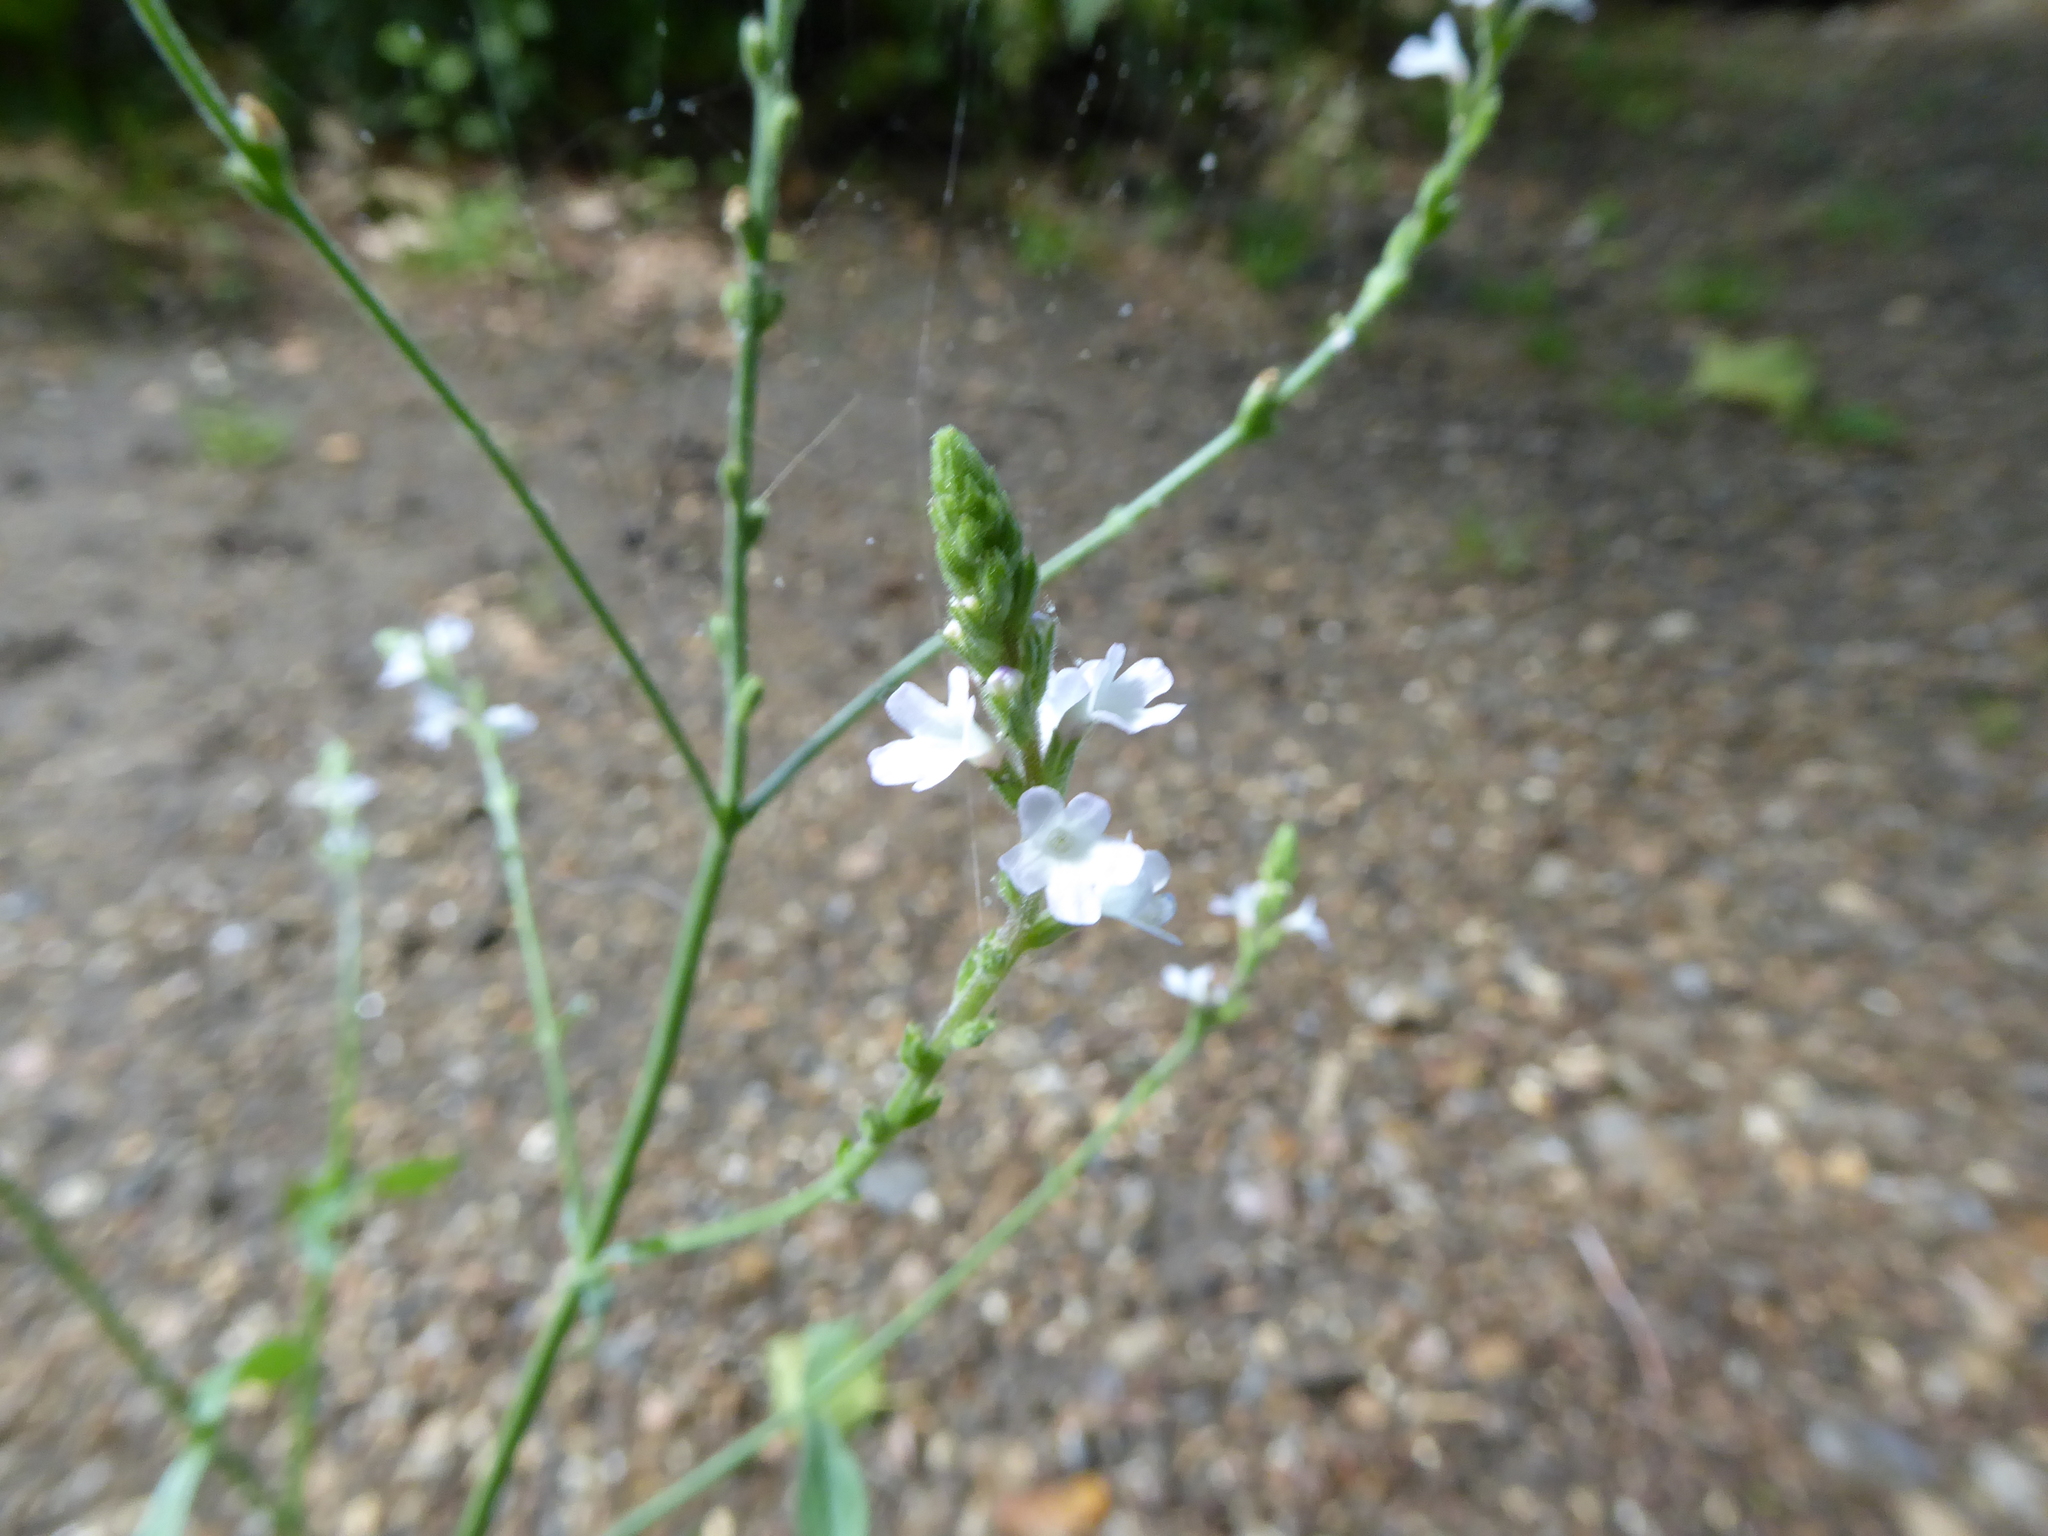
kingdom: Plantae
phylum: Tracheophyta
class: Magnoliopsida
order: Lamiales
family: Verbenaceae
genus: Verbena
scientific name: Verbena officinalis
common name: Vervain
